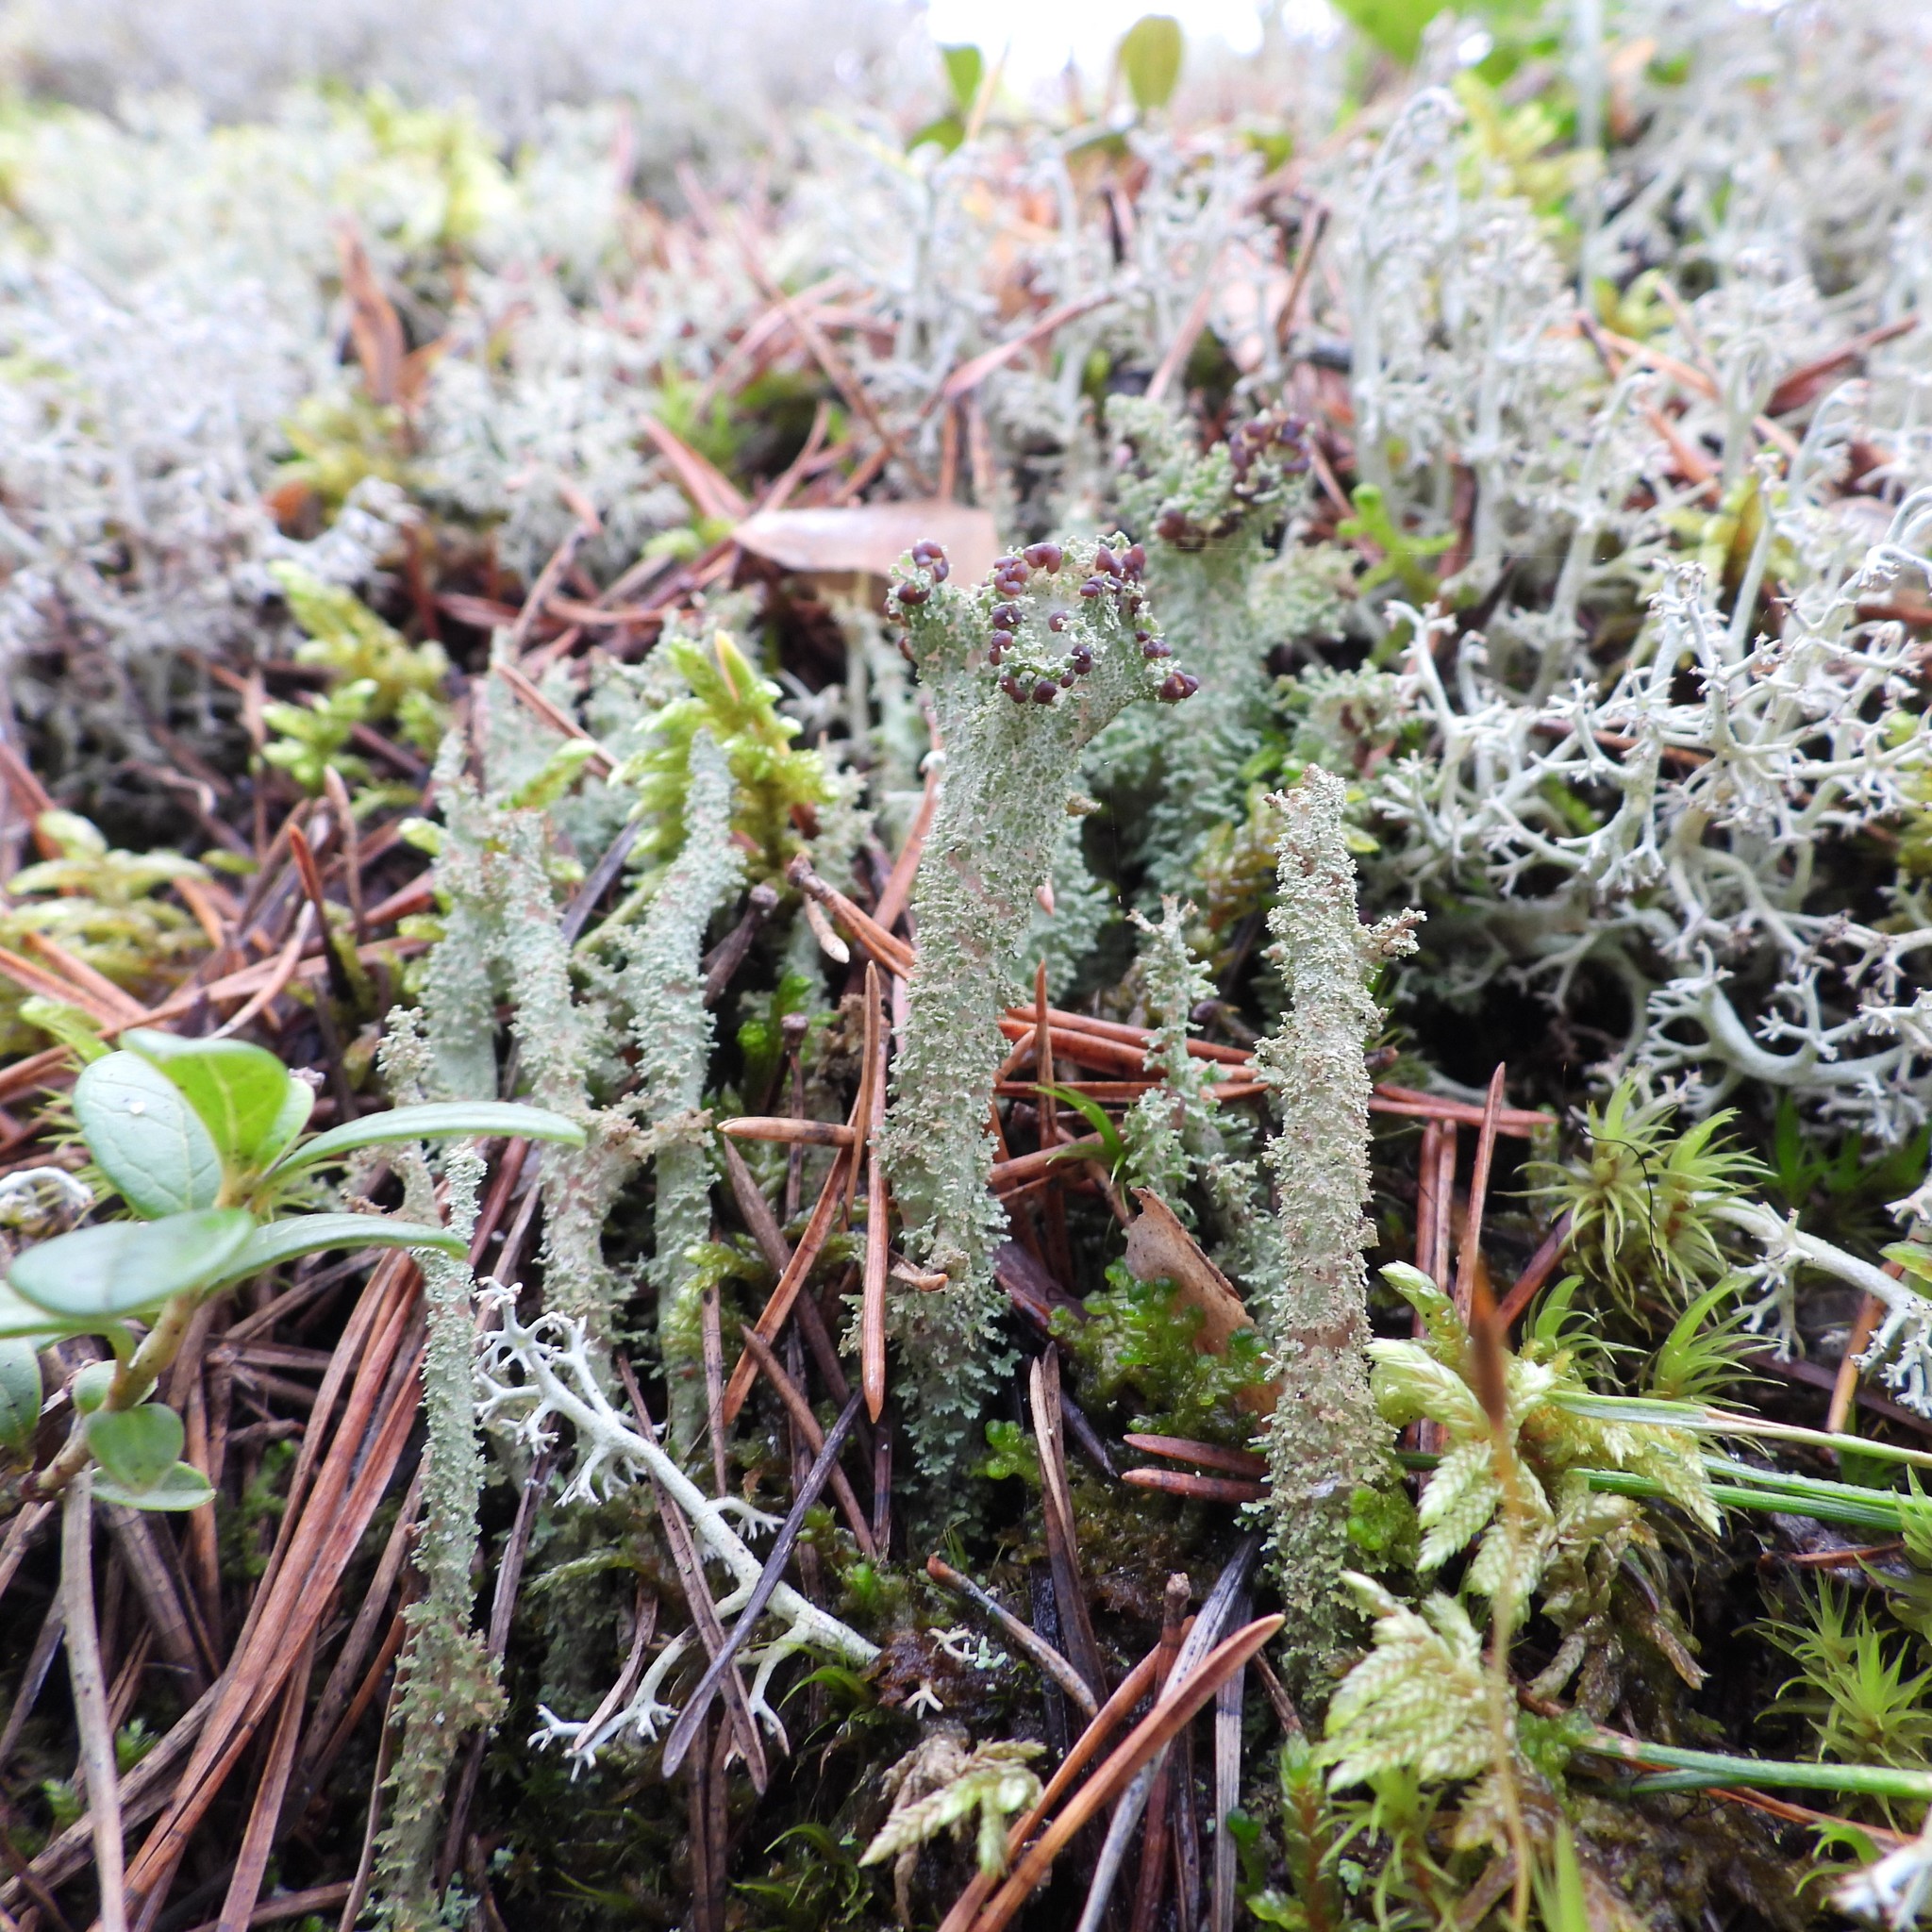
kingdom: Fungi
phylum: Ascomycota
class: Lecanoromycetes
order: Lecanorales
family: Cladoniaceae
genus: Cladonia
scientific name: Cladonia squamosa
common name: Dragon horn
